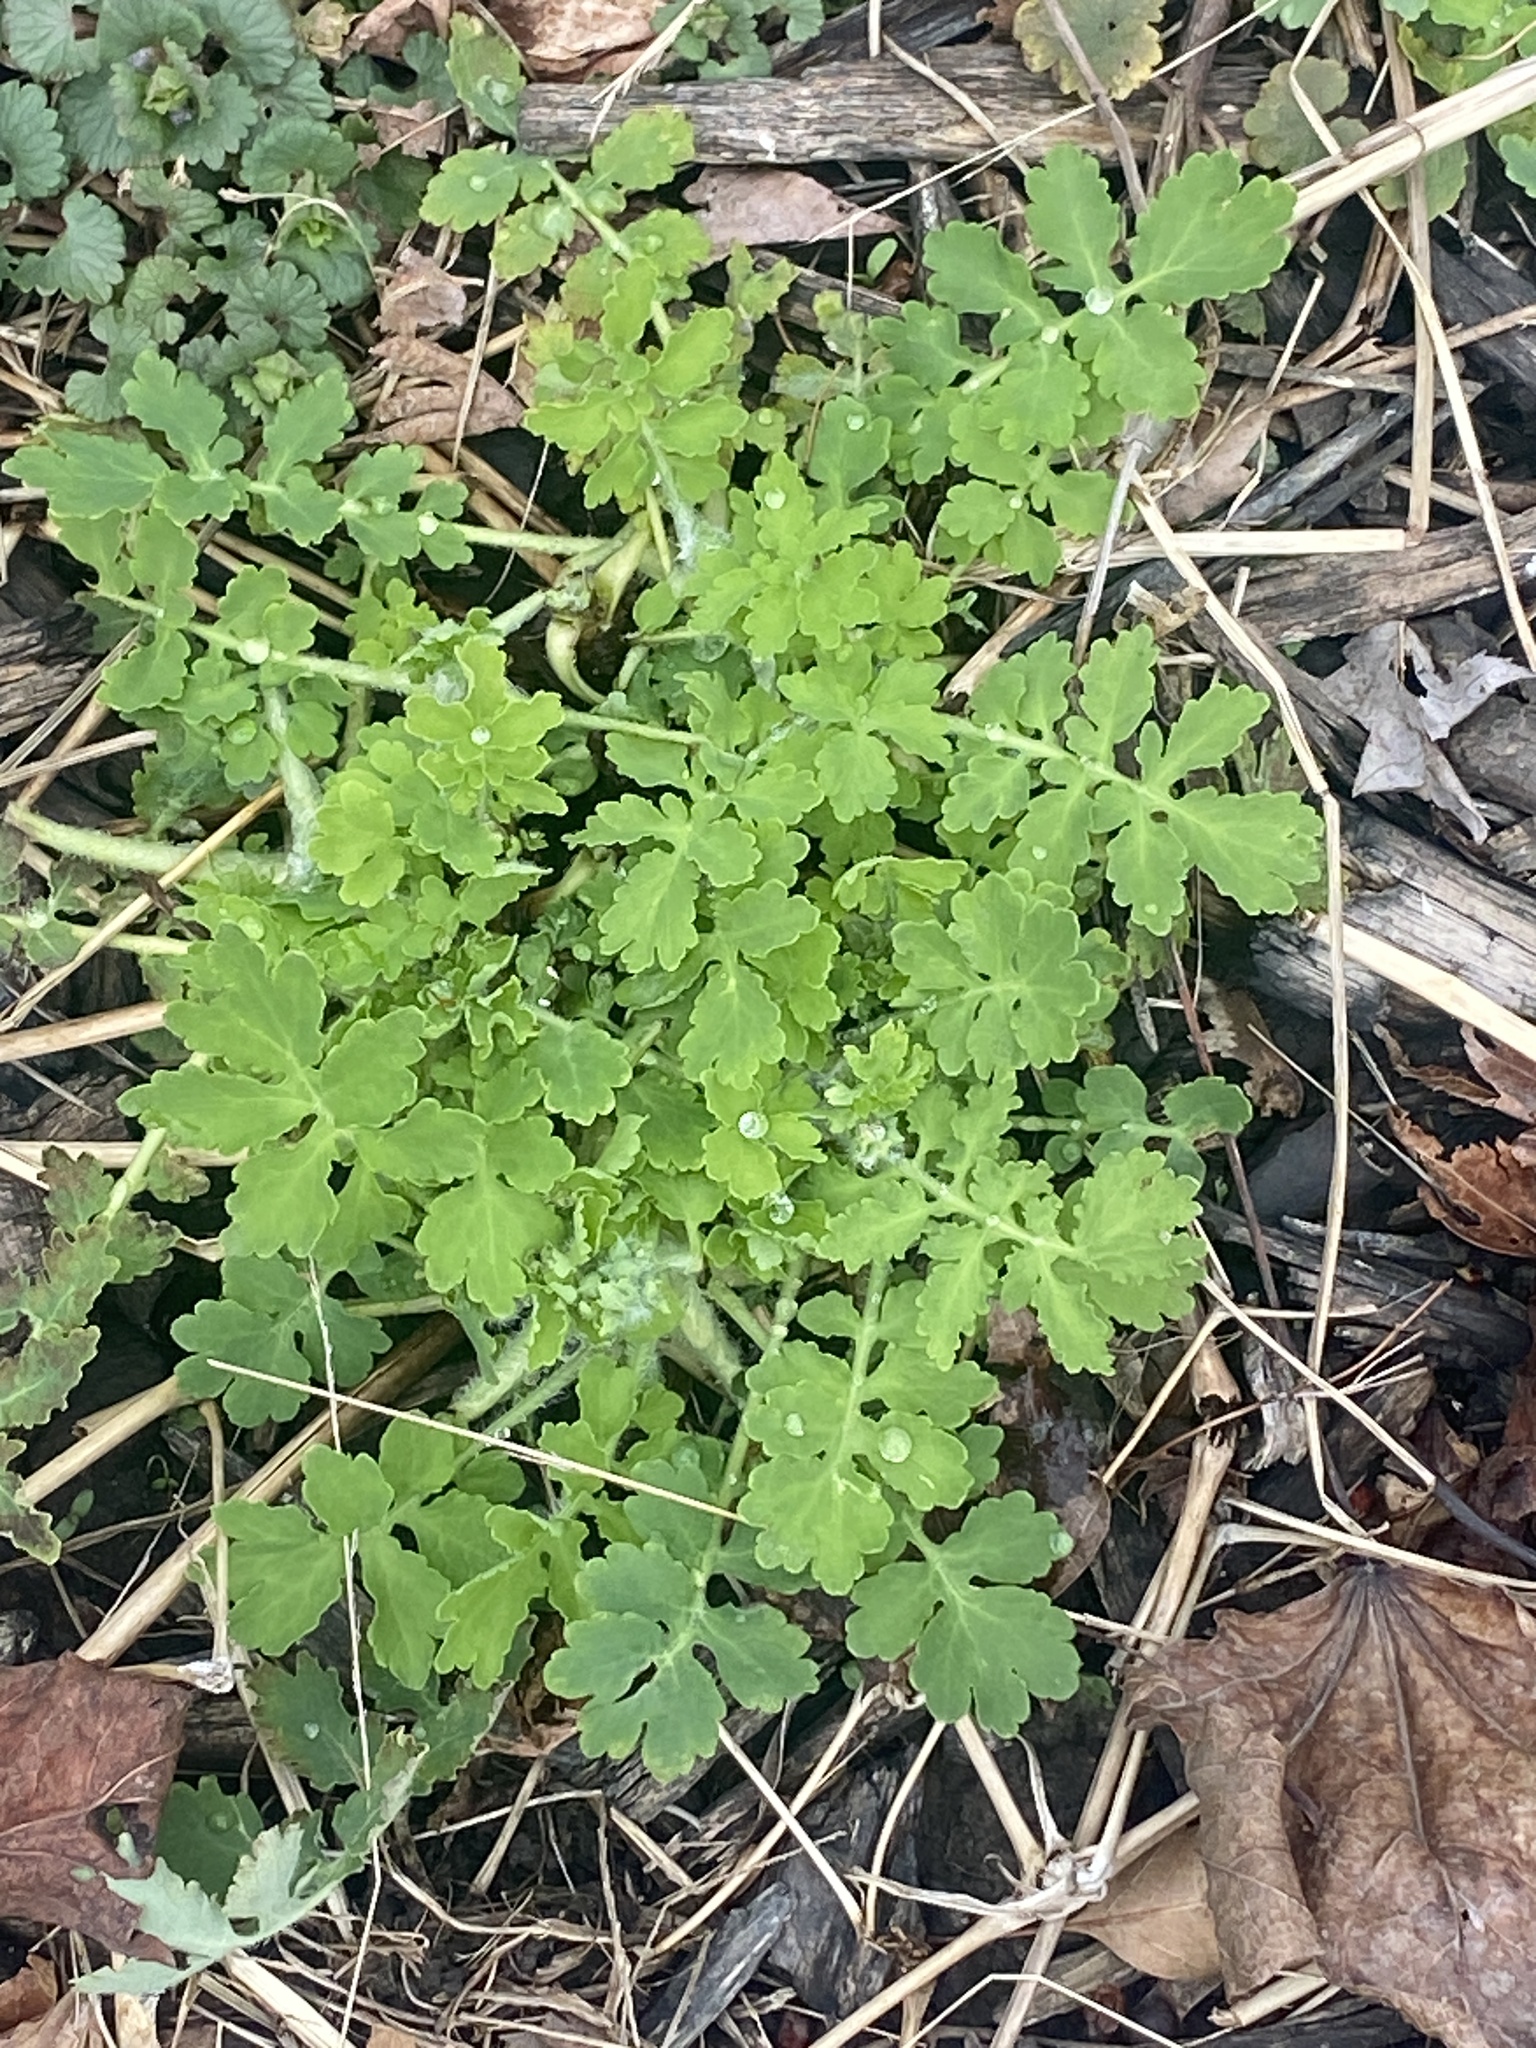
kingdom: Plantae
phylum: Tracheophyta
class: Magnoliopsida
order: Ranunculales
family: Papaveraceae
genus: Chelidonium
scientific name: Chelidonium majus
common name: Greater celandine
